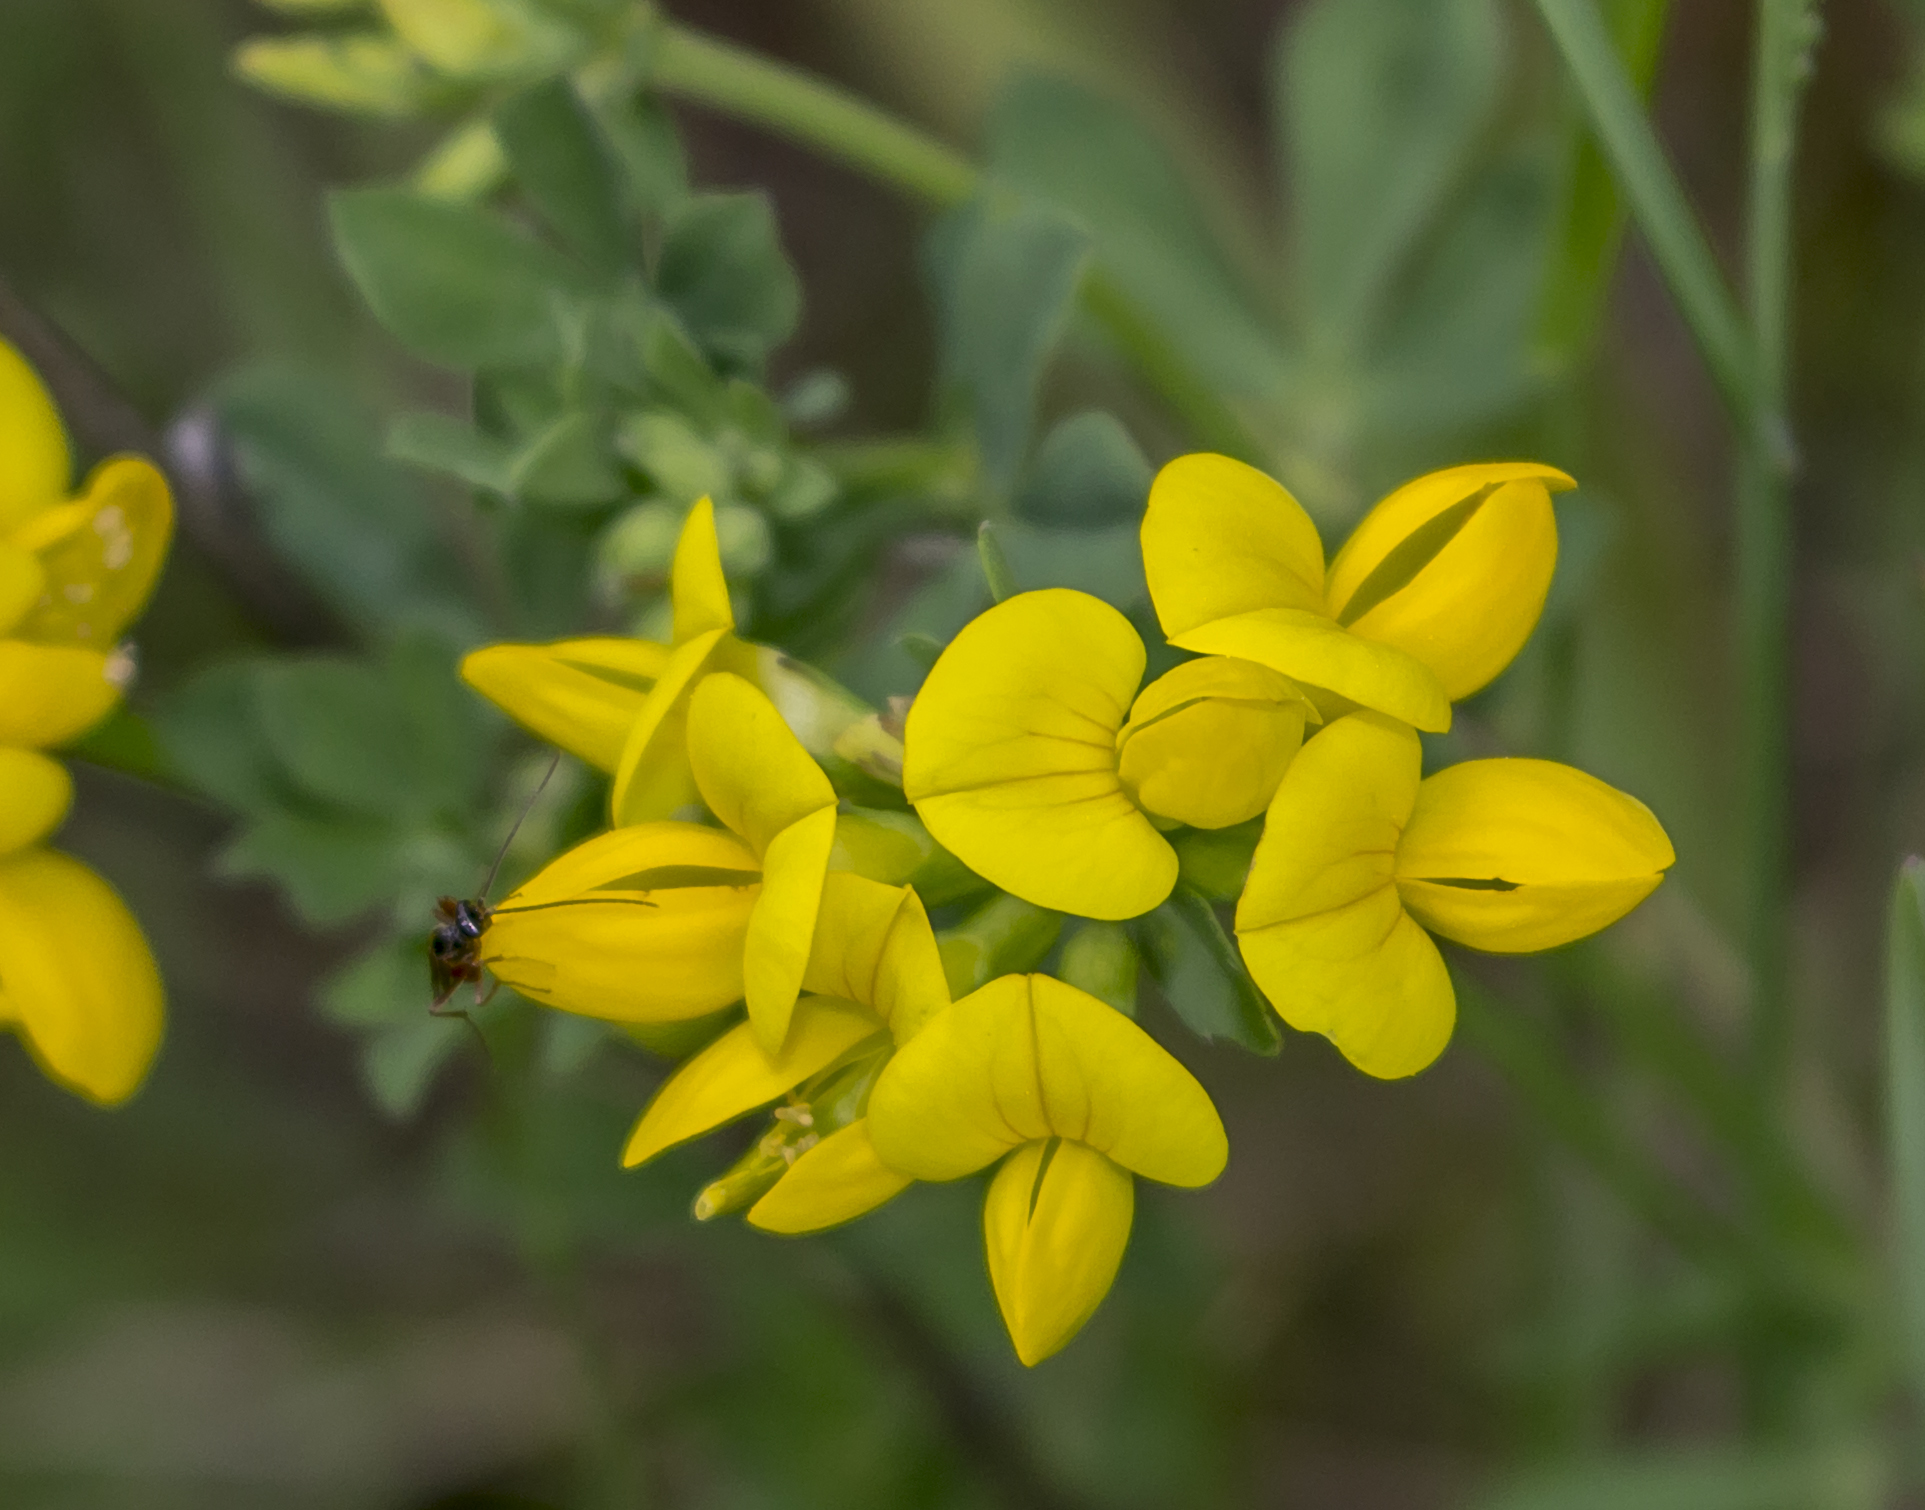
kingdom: Plantae
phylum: Tracheophyta
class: Magnoliopsida
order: Fabales
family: Fabaceae
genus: Lotus
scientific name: Lotus corniculatus
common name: Common bird's-foot-trefoil
